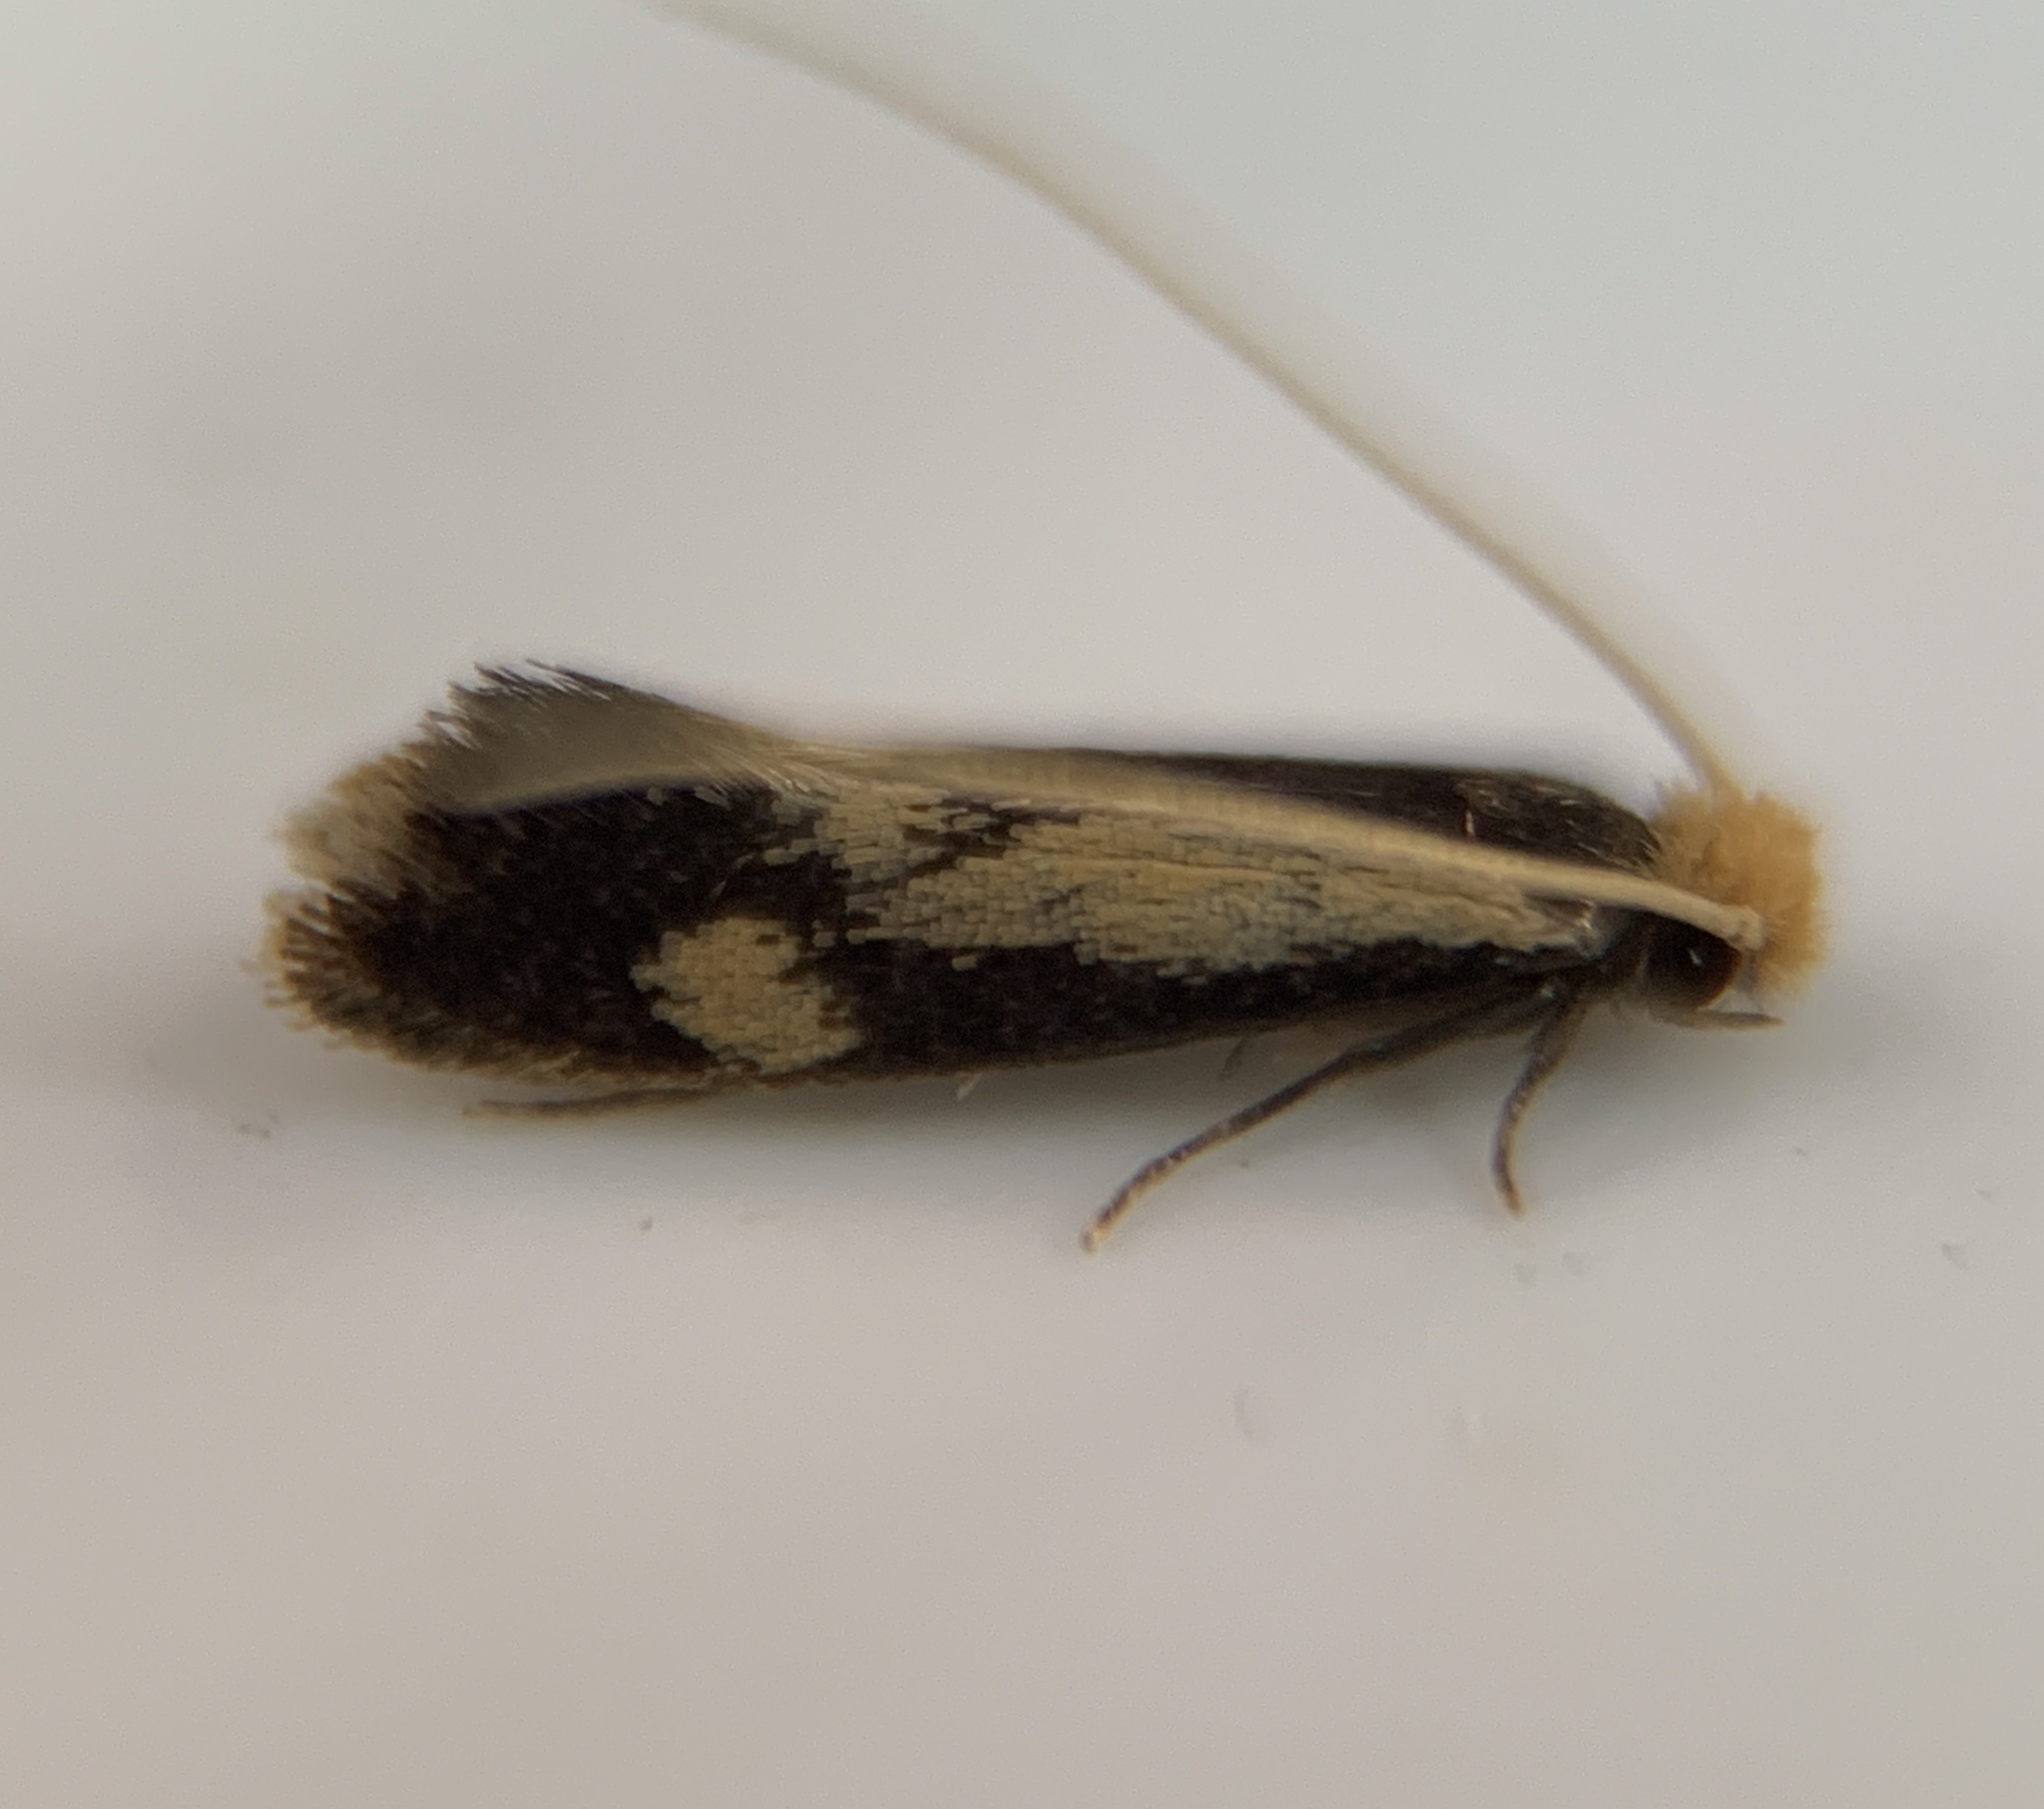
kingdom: Animalia
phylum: Arthropoda
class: Insecta
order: Lepidoptera
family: Meessiidae
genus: Isocorypha
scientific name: Isocorypha mediostriatella
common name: Old gold isocorypha moth
